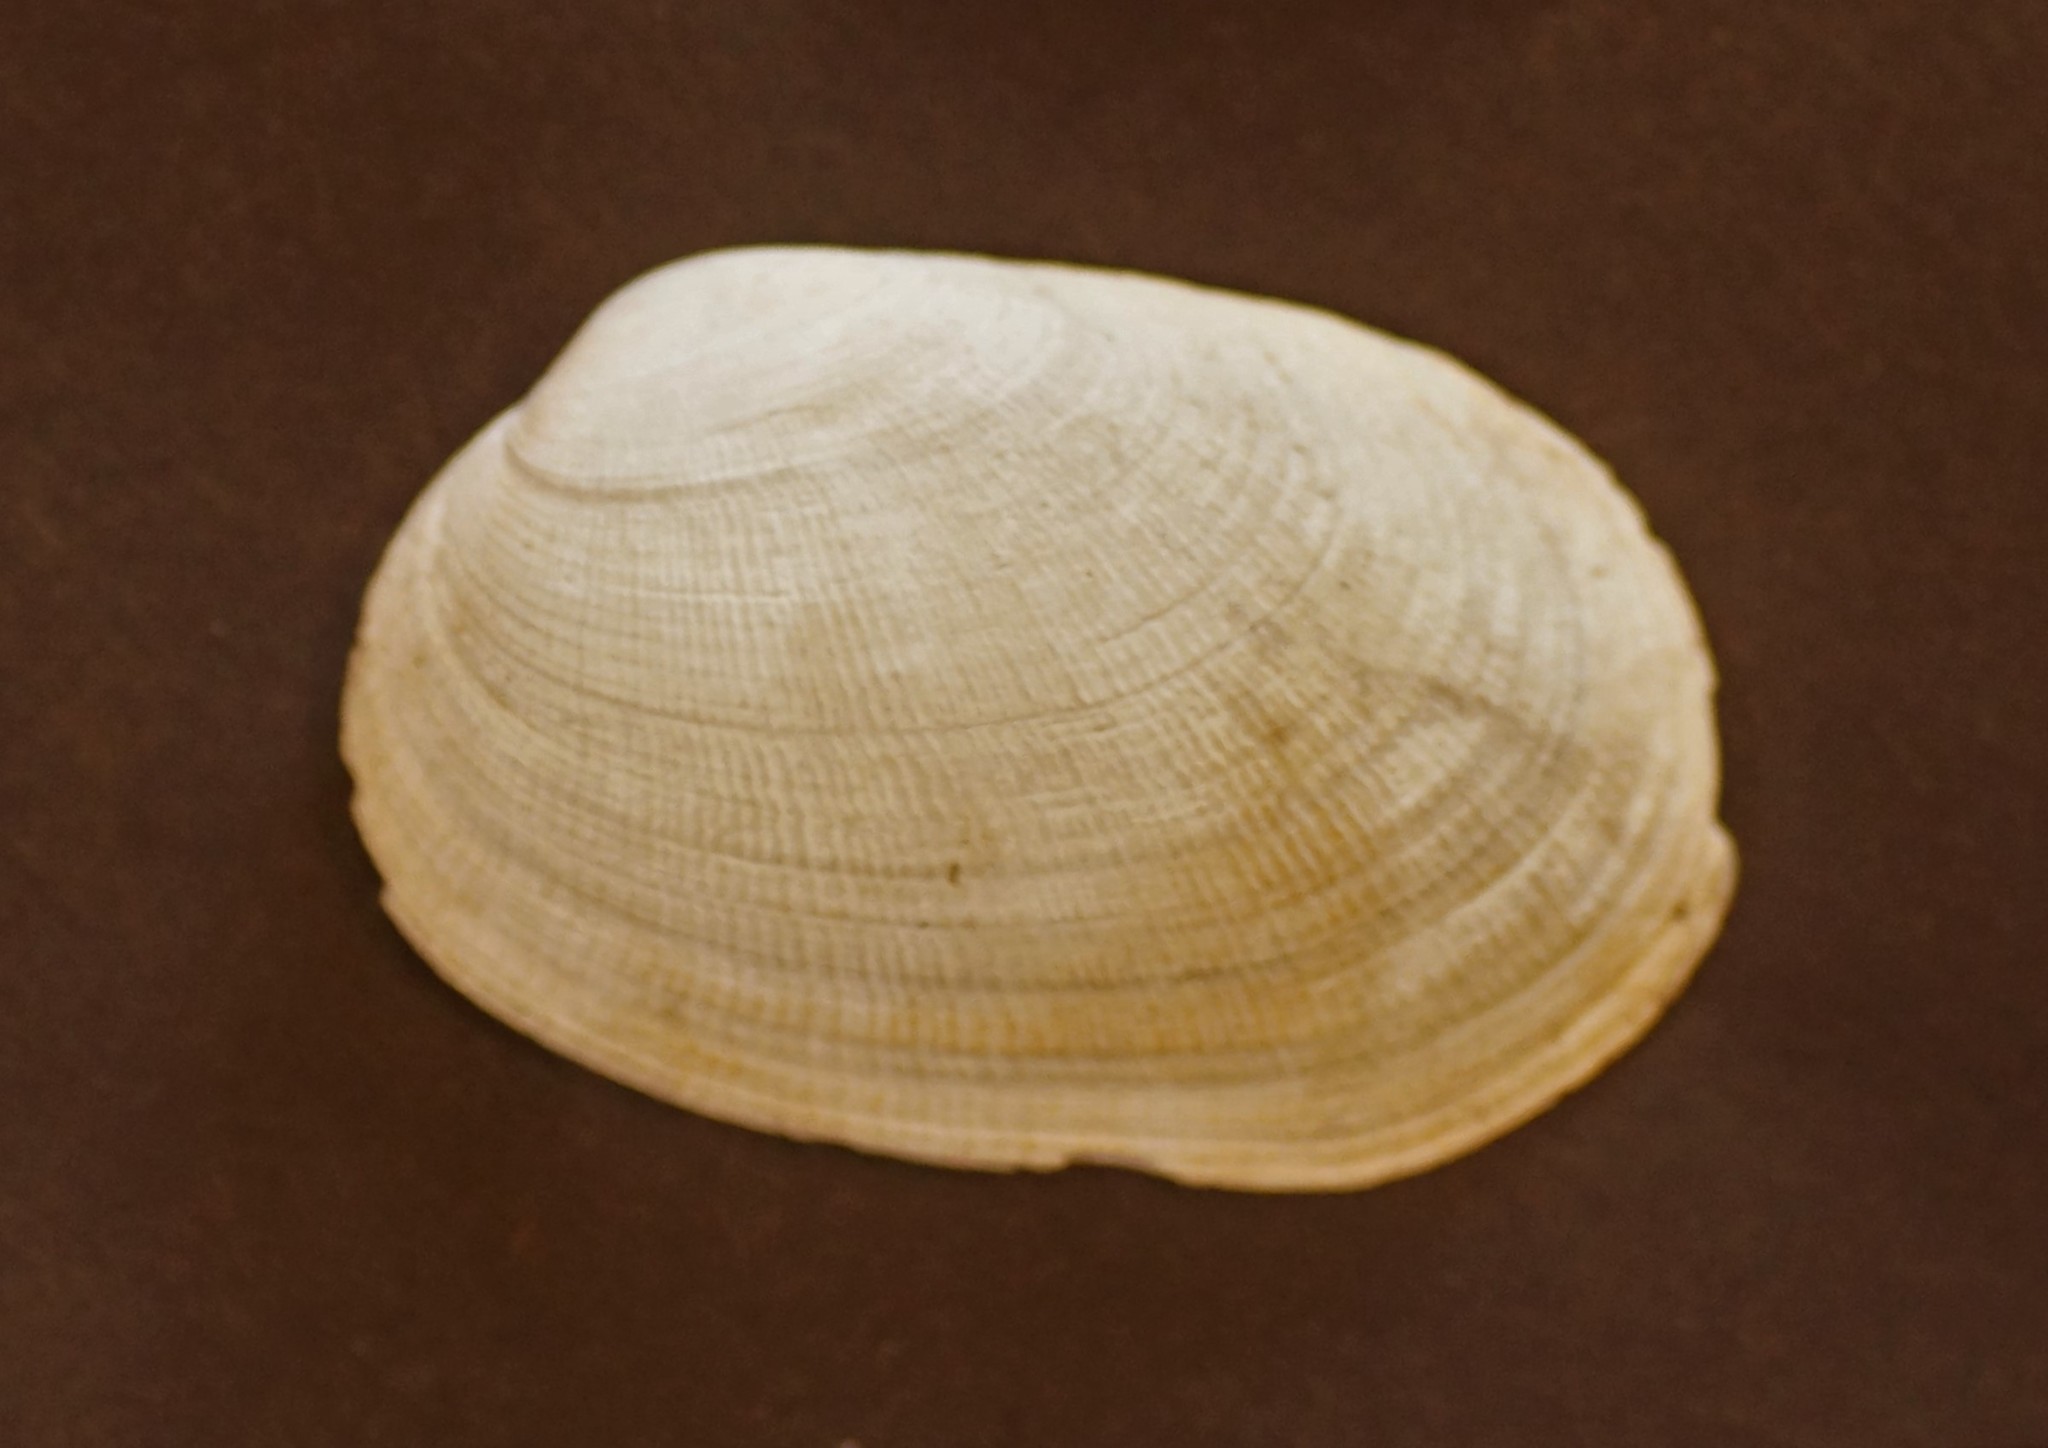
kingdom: Animalia
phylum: Mollusca
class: Bivalvia
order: Venerida
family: Veneridae
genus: Venerupis
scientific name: Venerupis galactites
